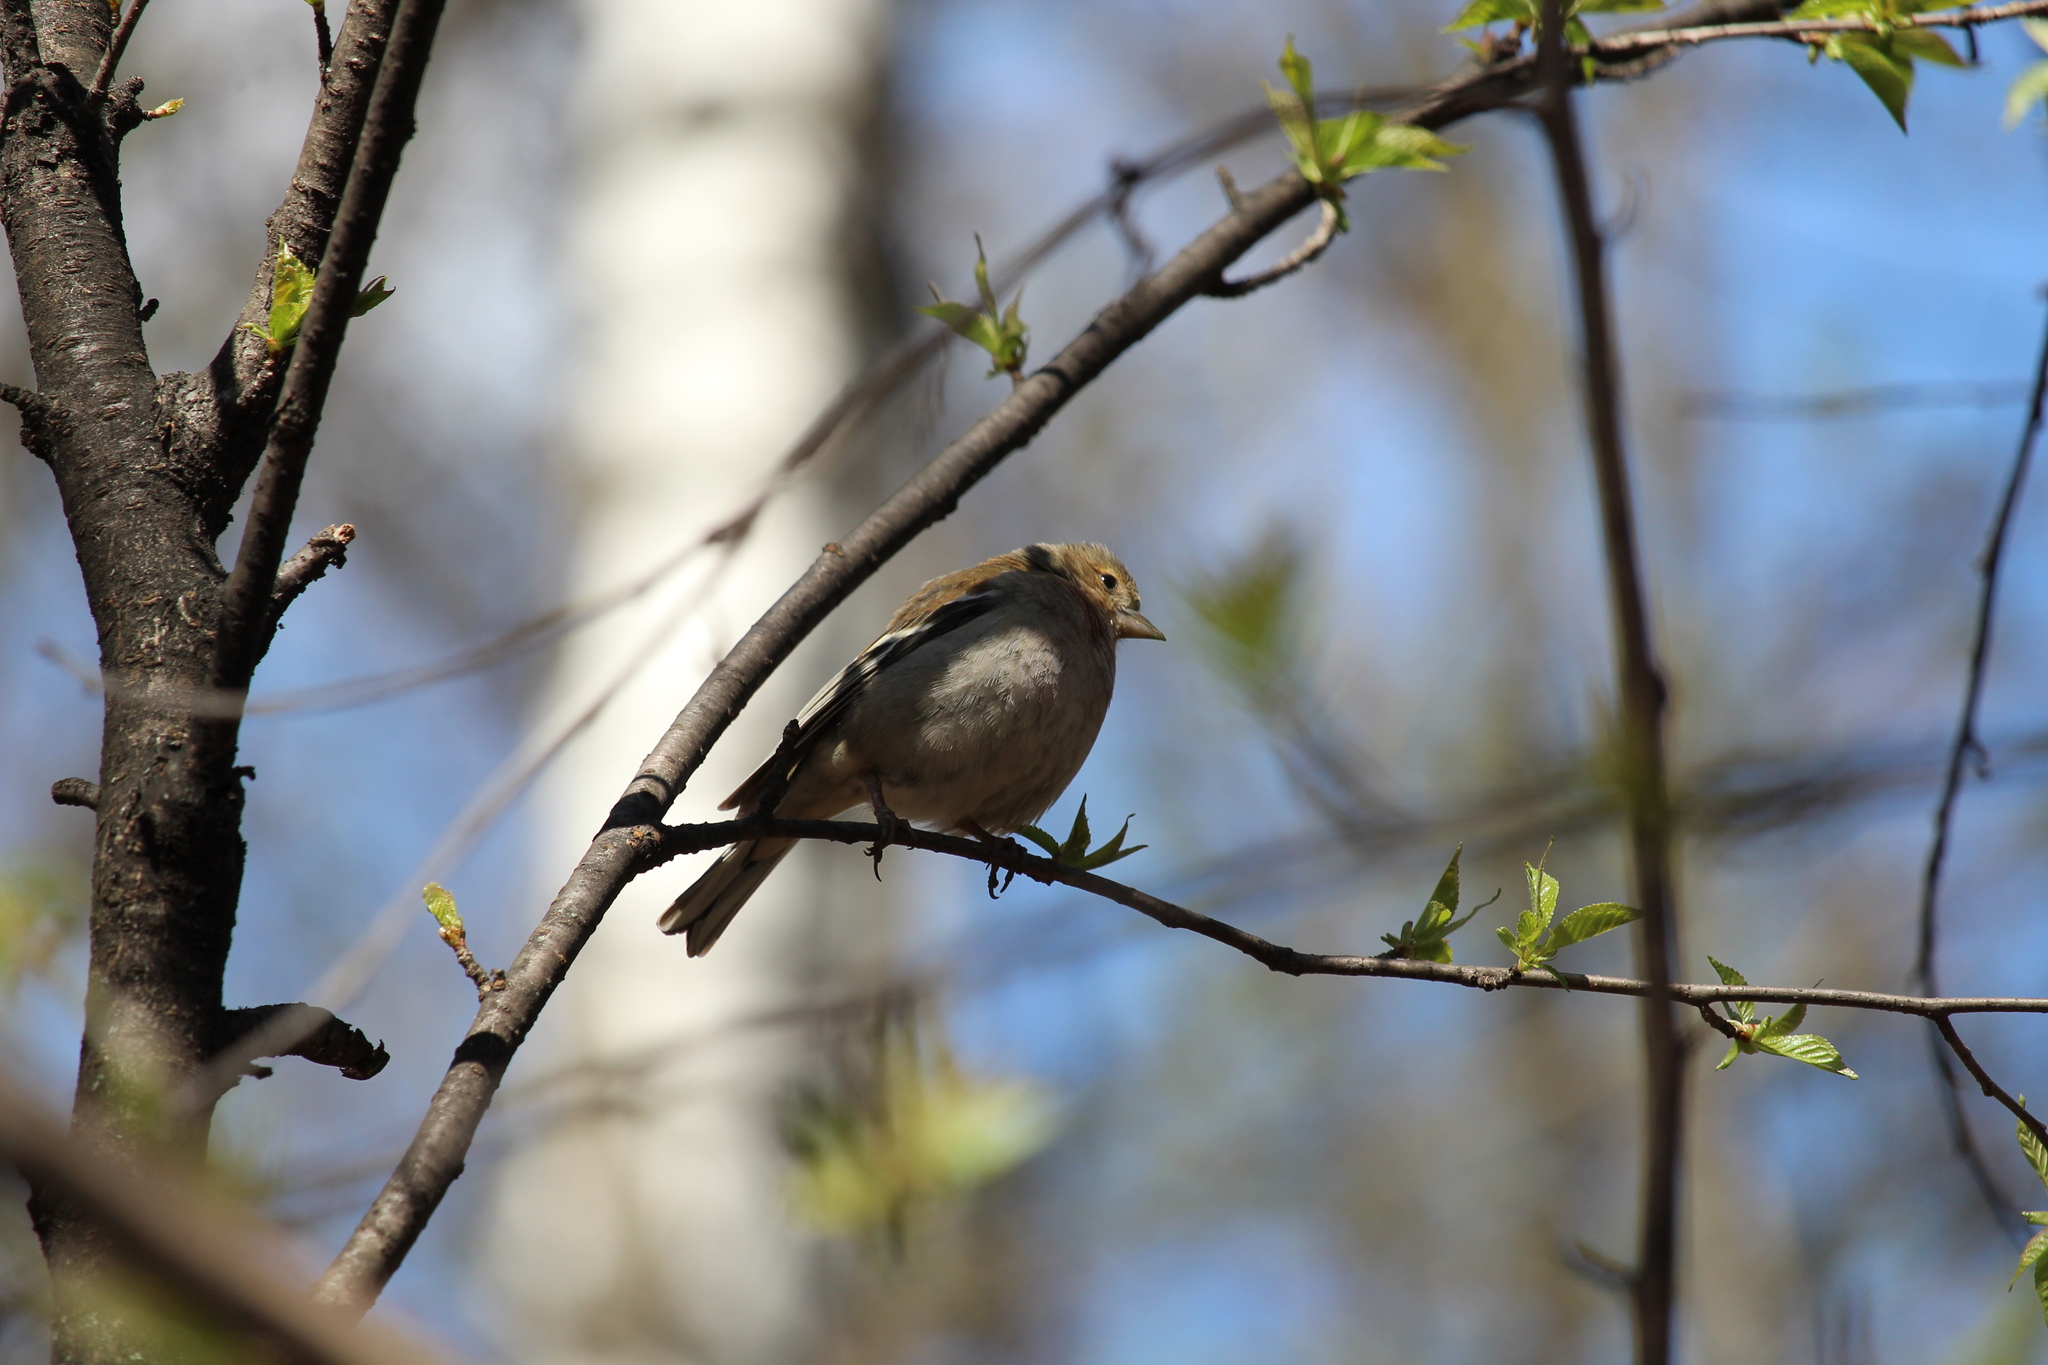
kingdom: Animalia
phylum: Chordata
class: Aves
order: Passeriformes
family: Fringillidae
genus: Fringilla
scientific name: Fringilla coelebs
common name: Common chaffinch
